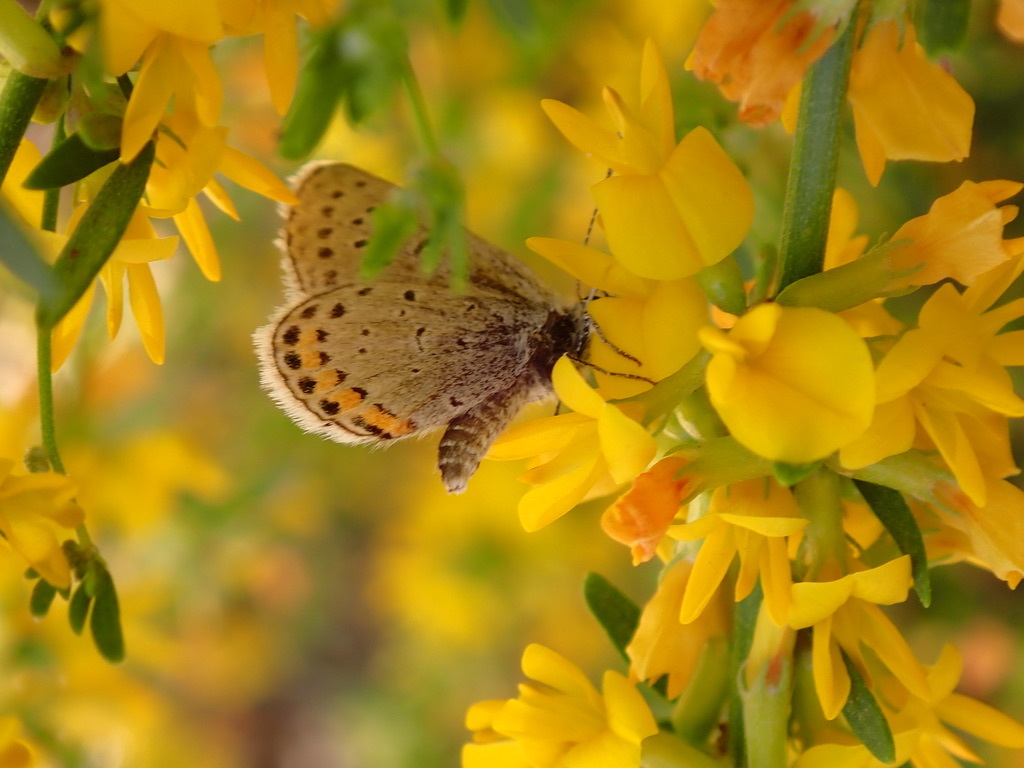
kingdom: Animalia
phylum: Arthropoda
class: Insecta
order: Lepidoptera
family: Lycaenidae
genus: Icaricia
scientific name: Icaricia acmon
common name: Acmon blue
